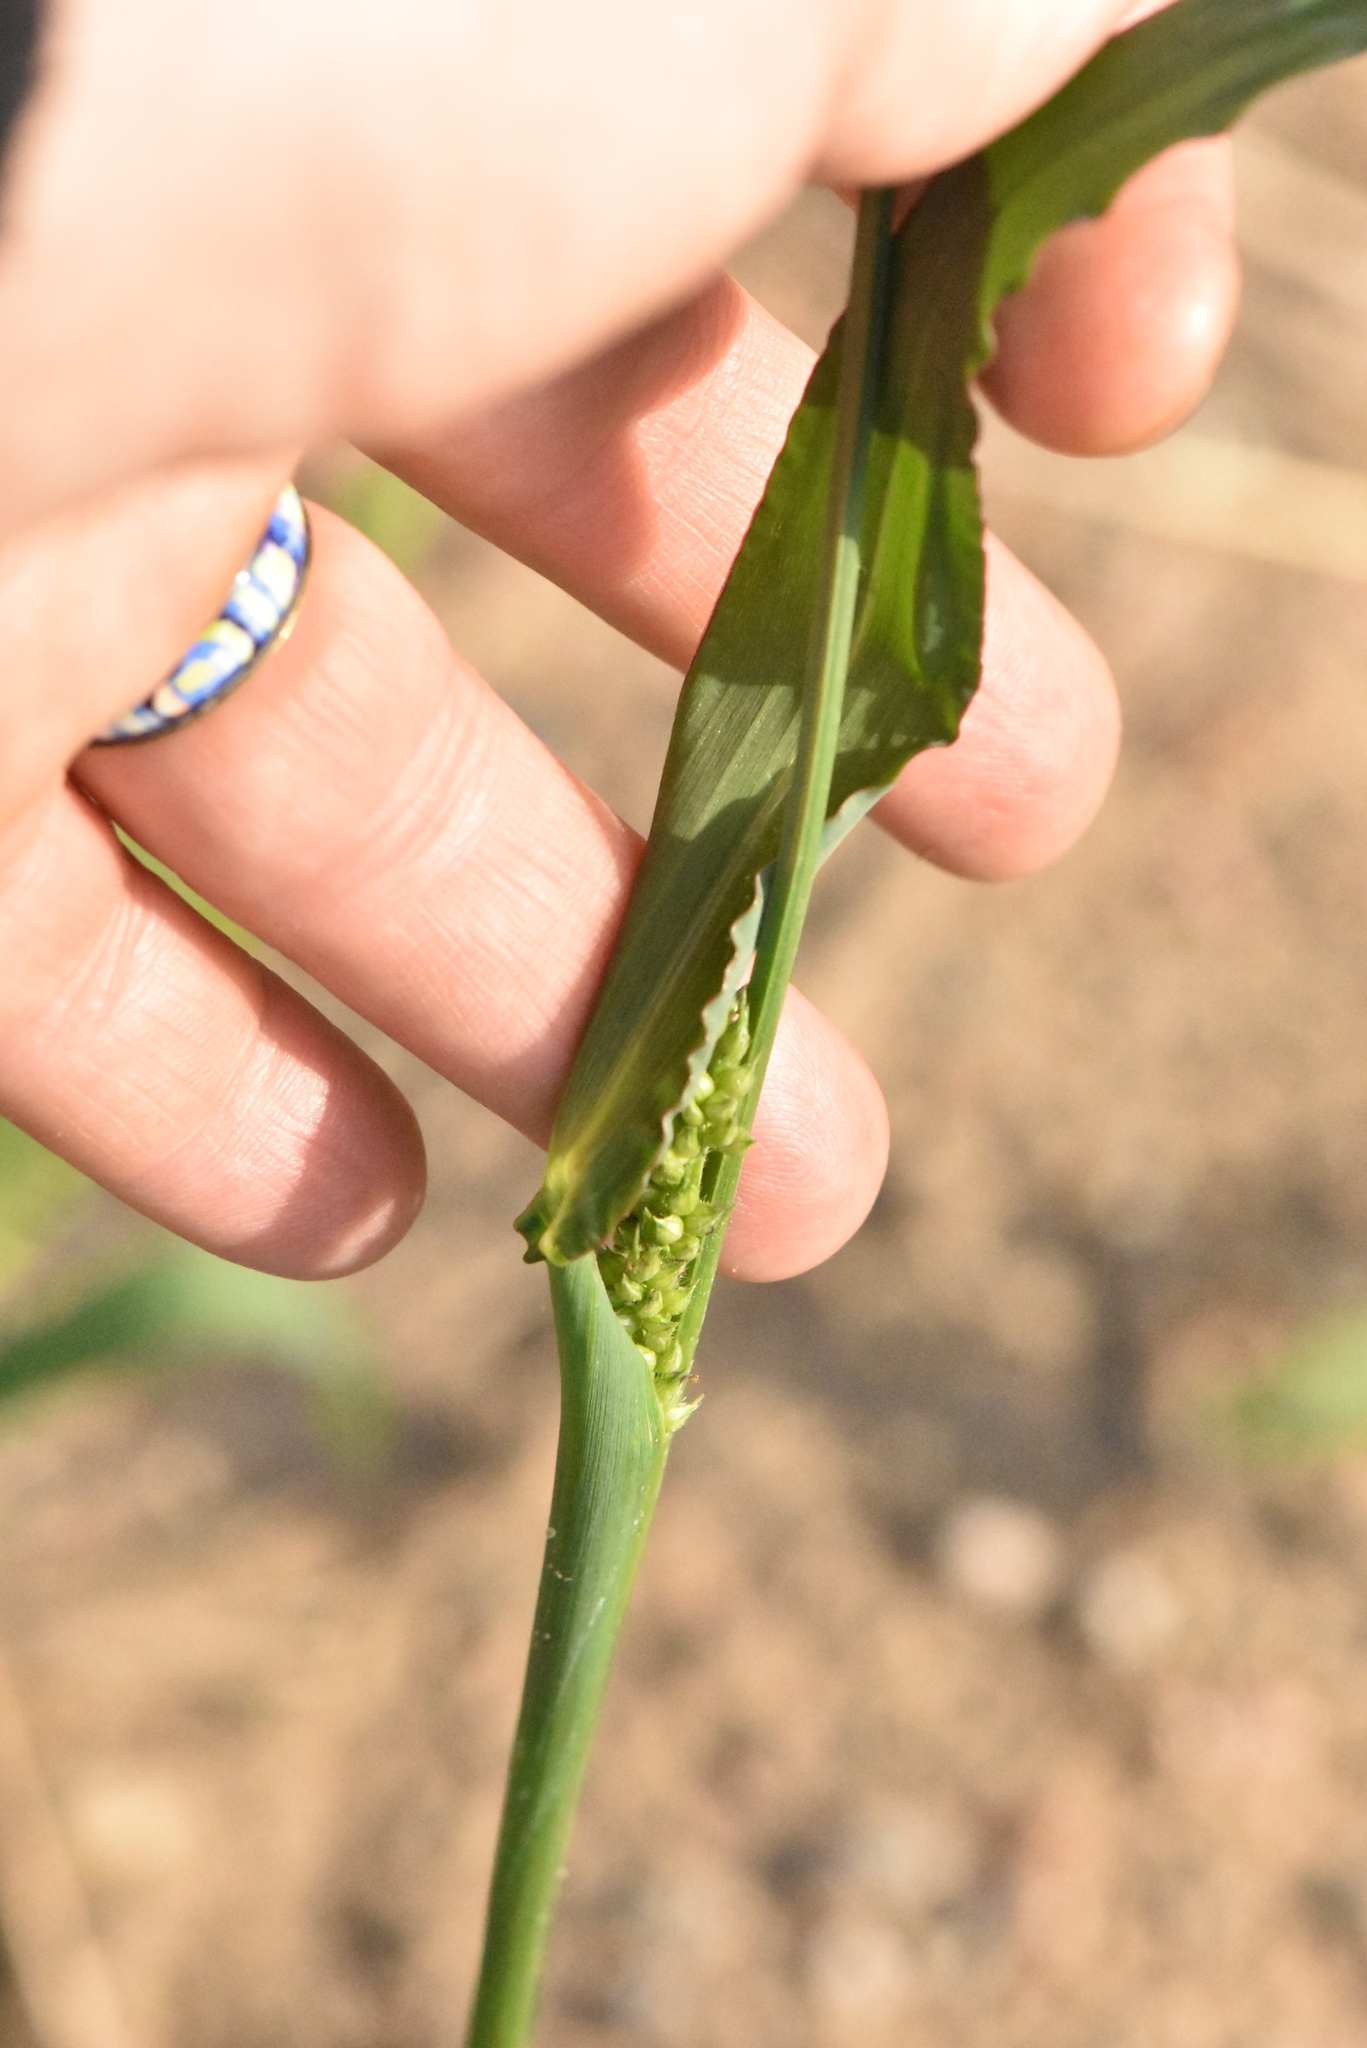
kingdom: Plantae
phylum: Tracheophyta
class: Liliopsida
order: Poales
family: Poaceae
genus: Echinochloa
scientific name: Echinochloa crus-galli
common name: Cockspur
